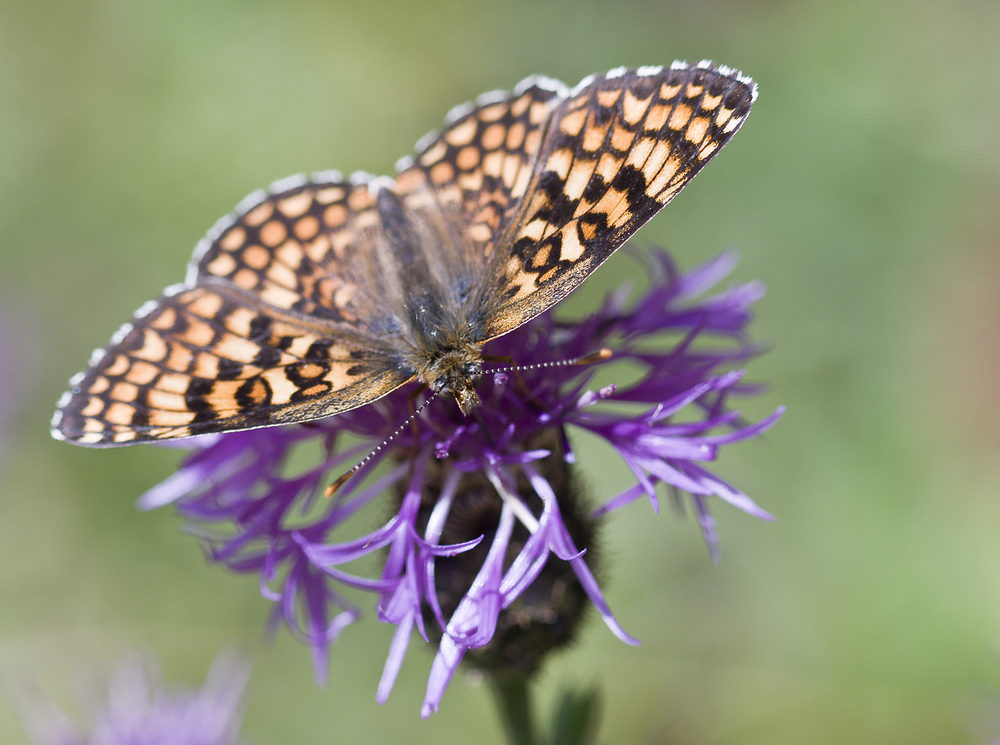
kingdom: Animalia
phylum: Arthropoda
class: Insecta
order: Lepidoptera
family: Nymphalidae
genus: Melitaea
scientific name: Melitaea phoebe
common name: Knapweed fritillary
